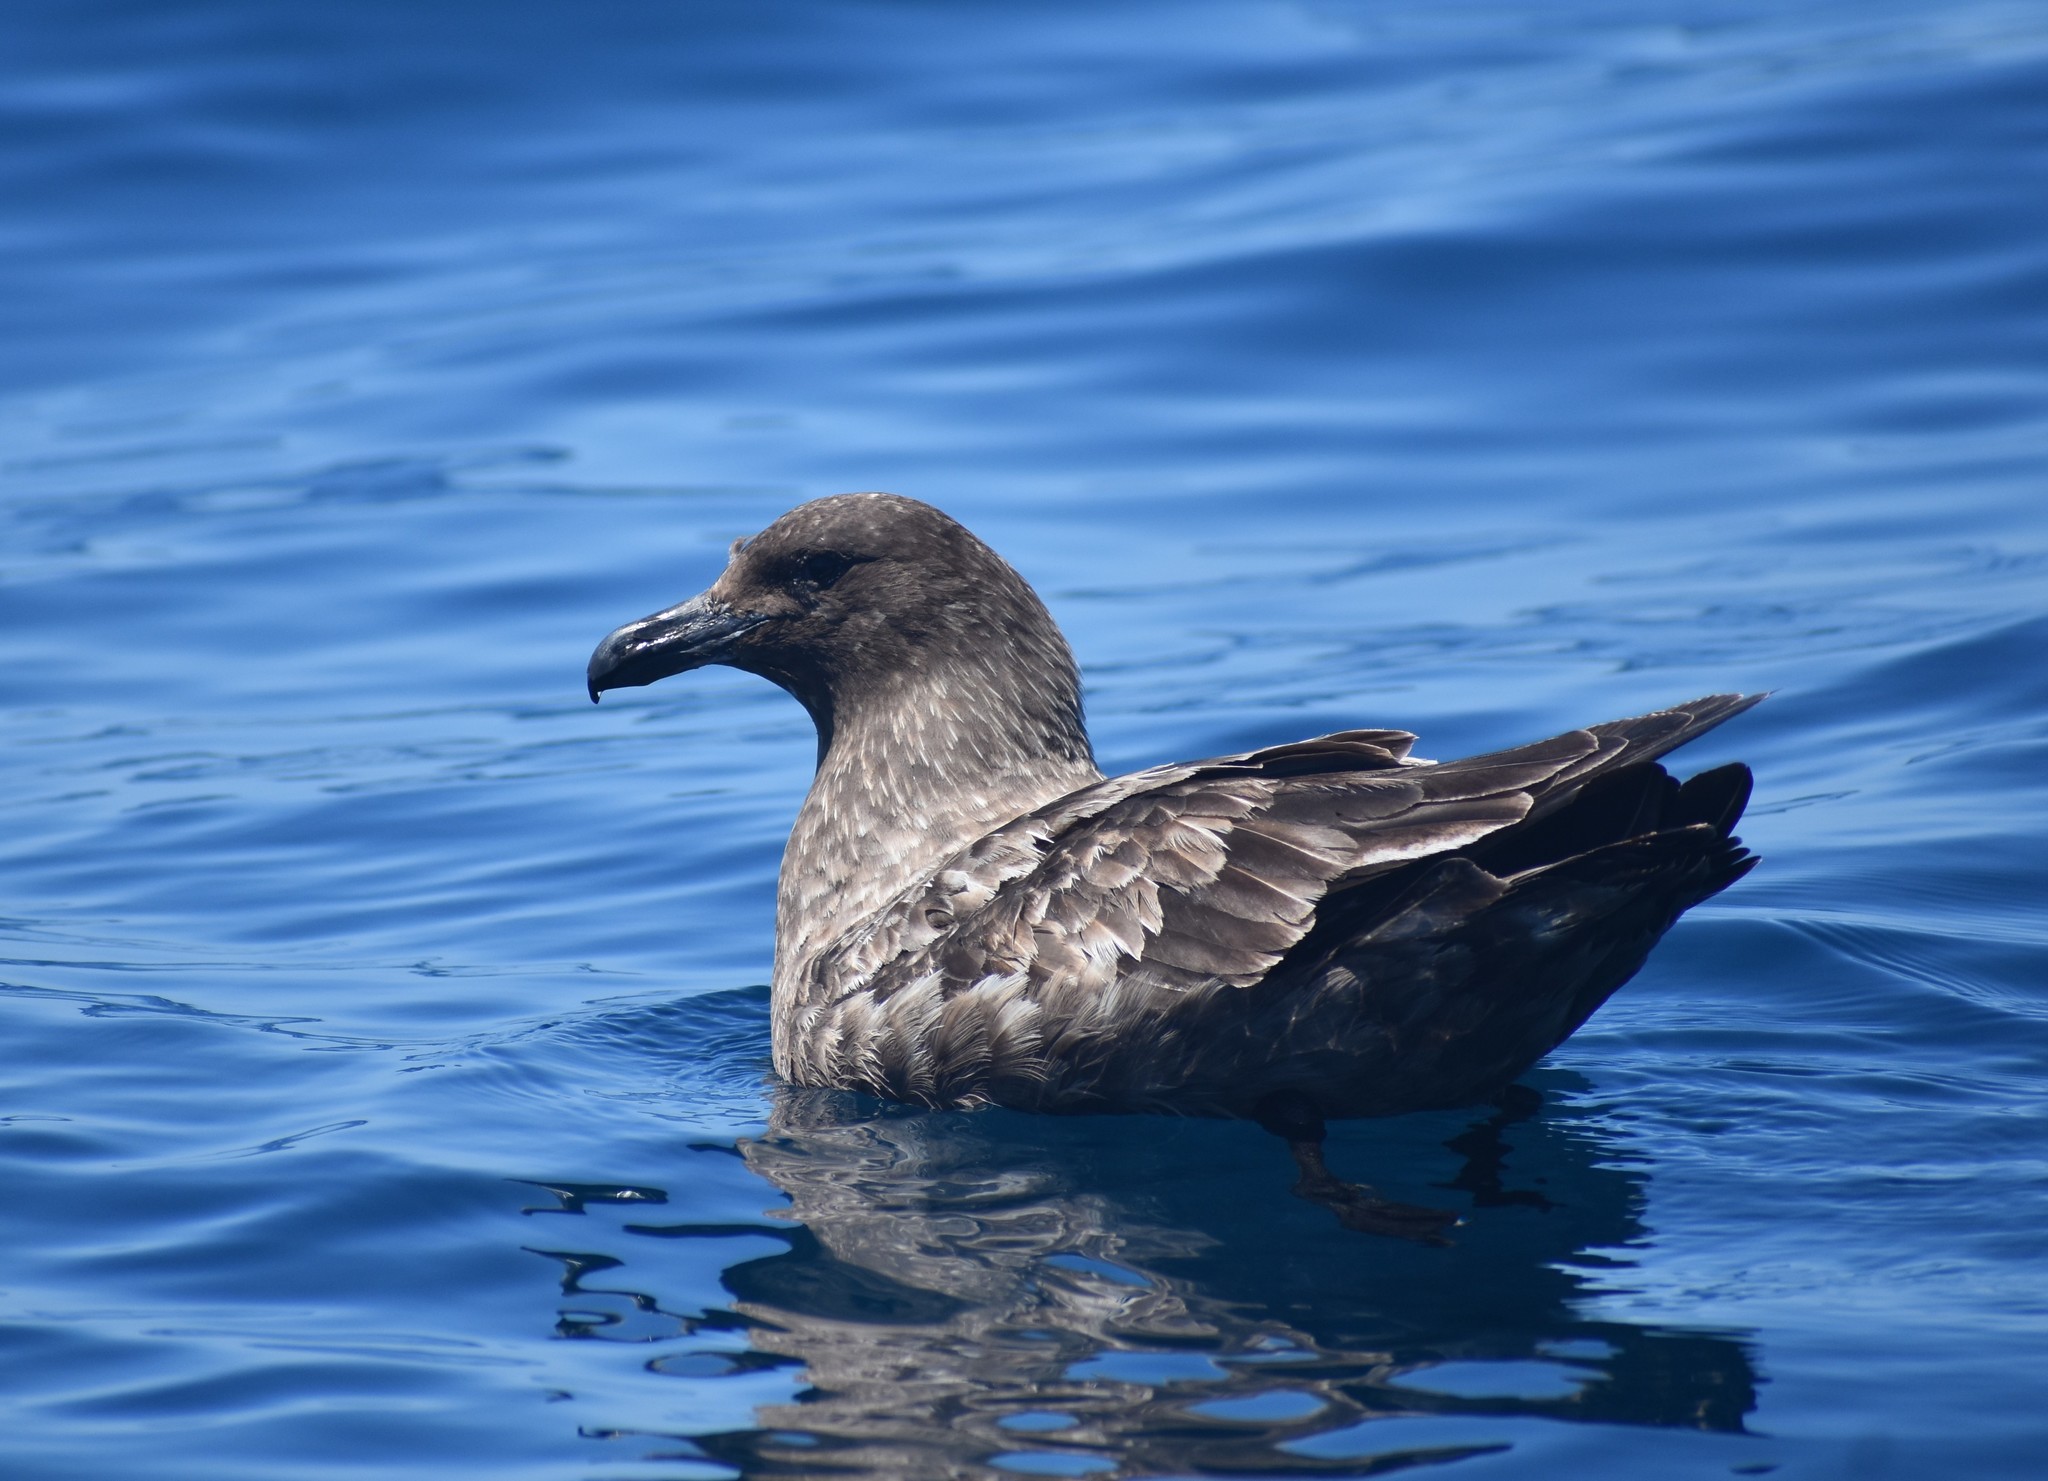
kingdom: Animalia
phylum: Chordata
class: Aves
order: Charadriiformes
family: Stercorariidae
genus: Stercorarius
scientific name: Stercorarius antarcticus
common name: Brown skua
